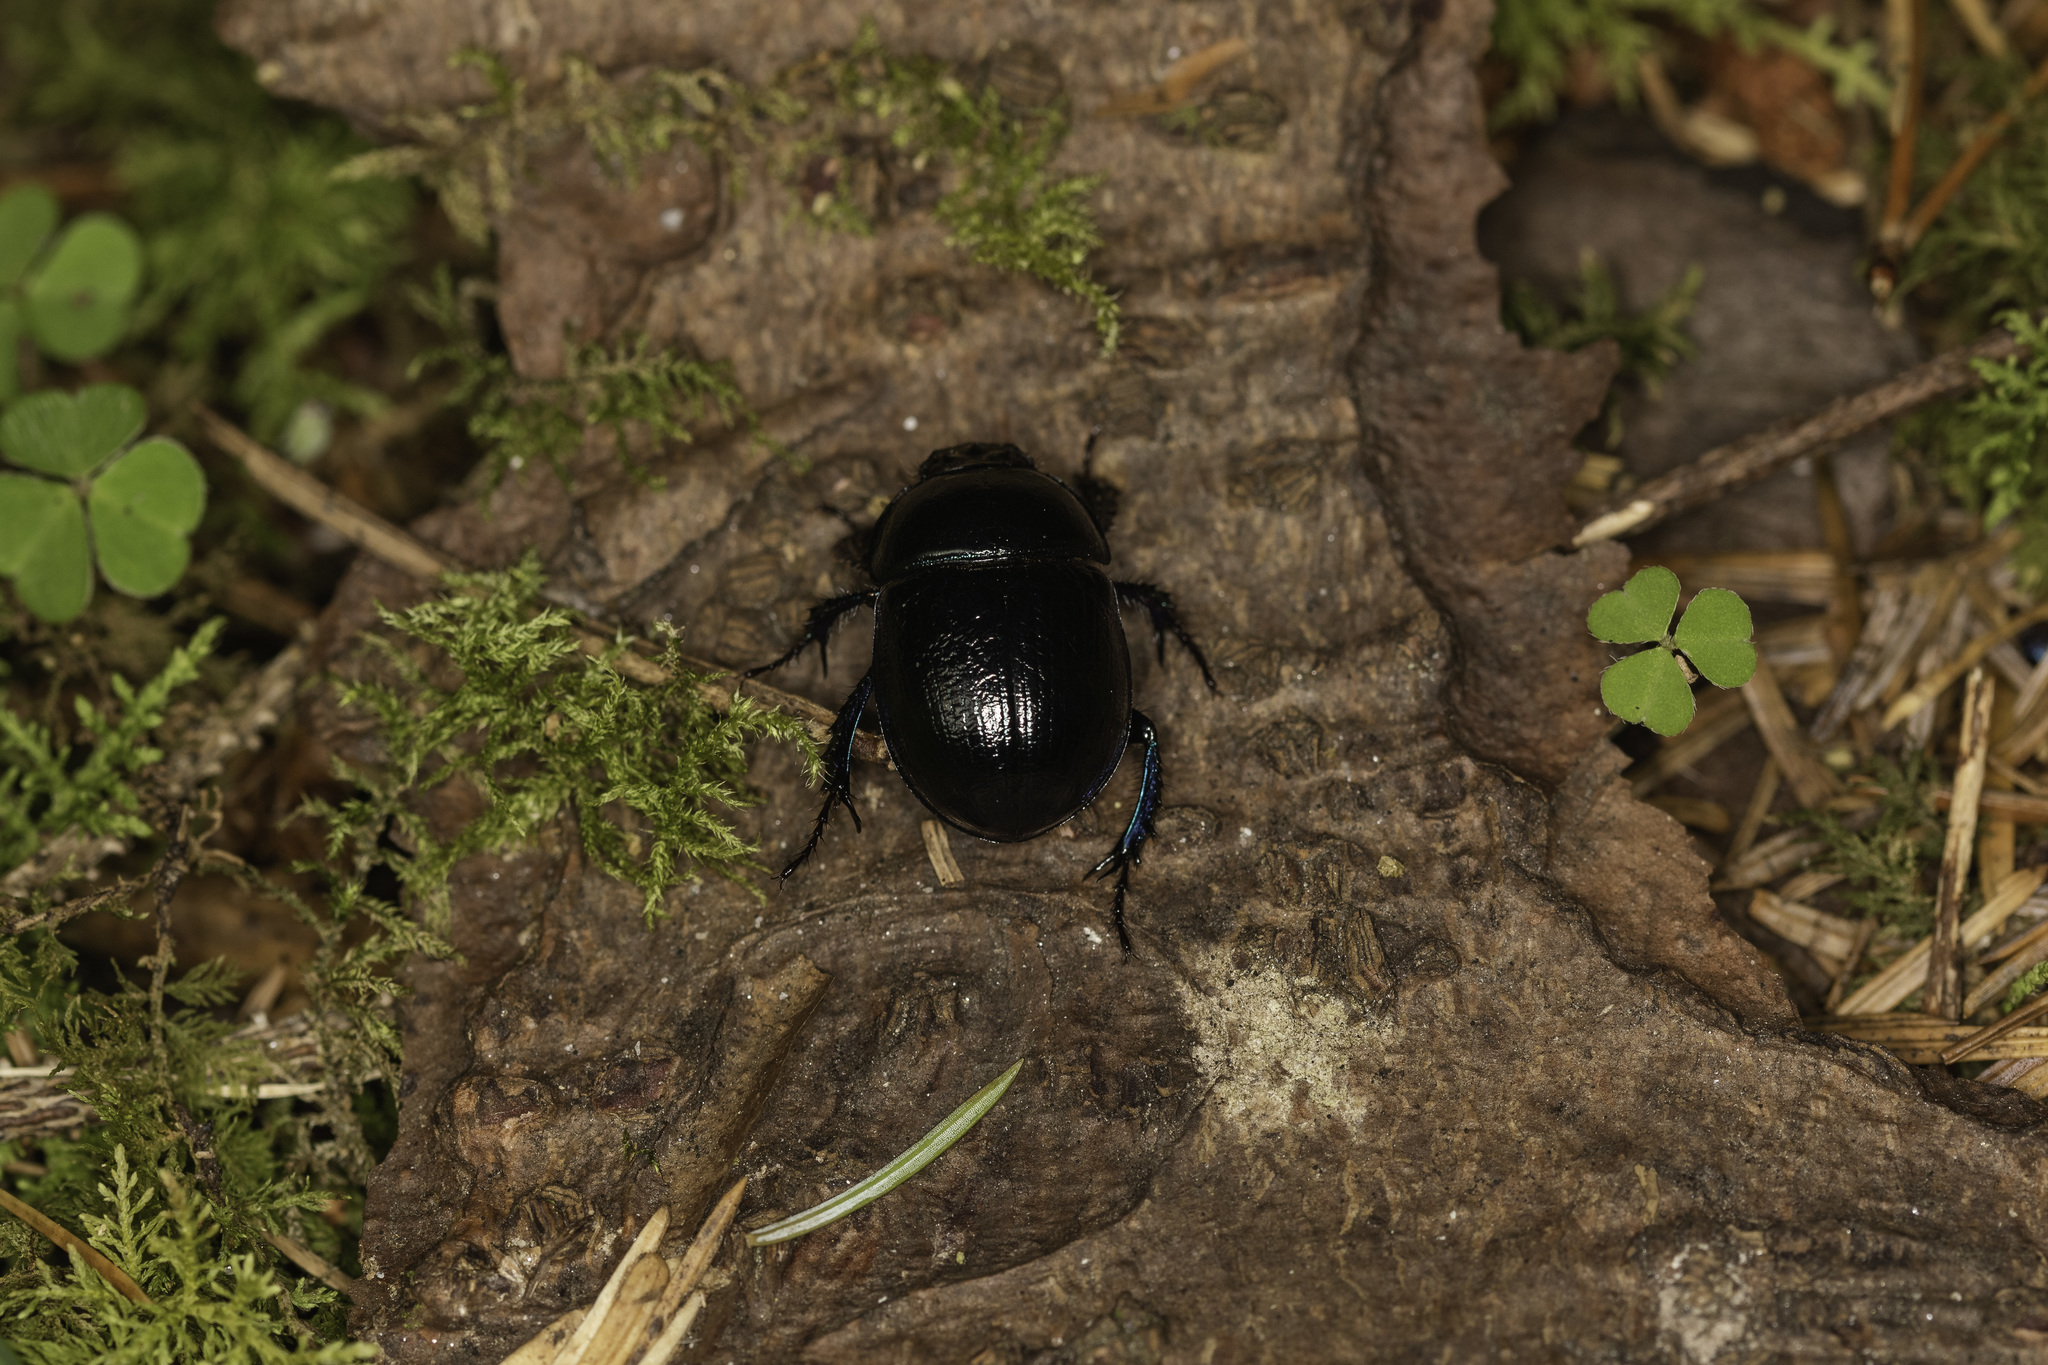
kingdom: Animalia
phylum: Arthropoda
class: Insecta
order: Coleoptera
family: Geotrupidae
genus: Anoplotrupes
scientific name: Anoplotrupes stercorosus
